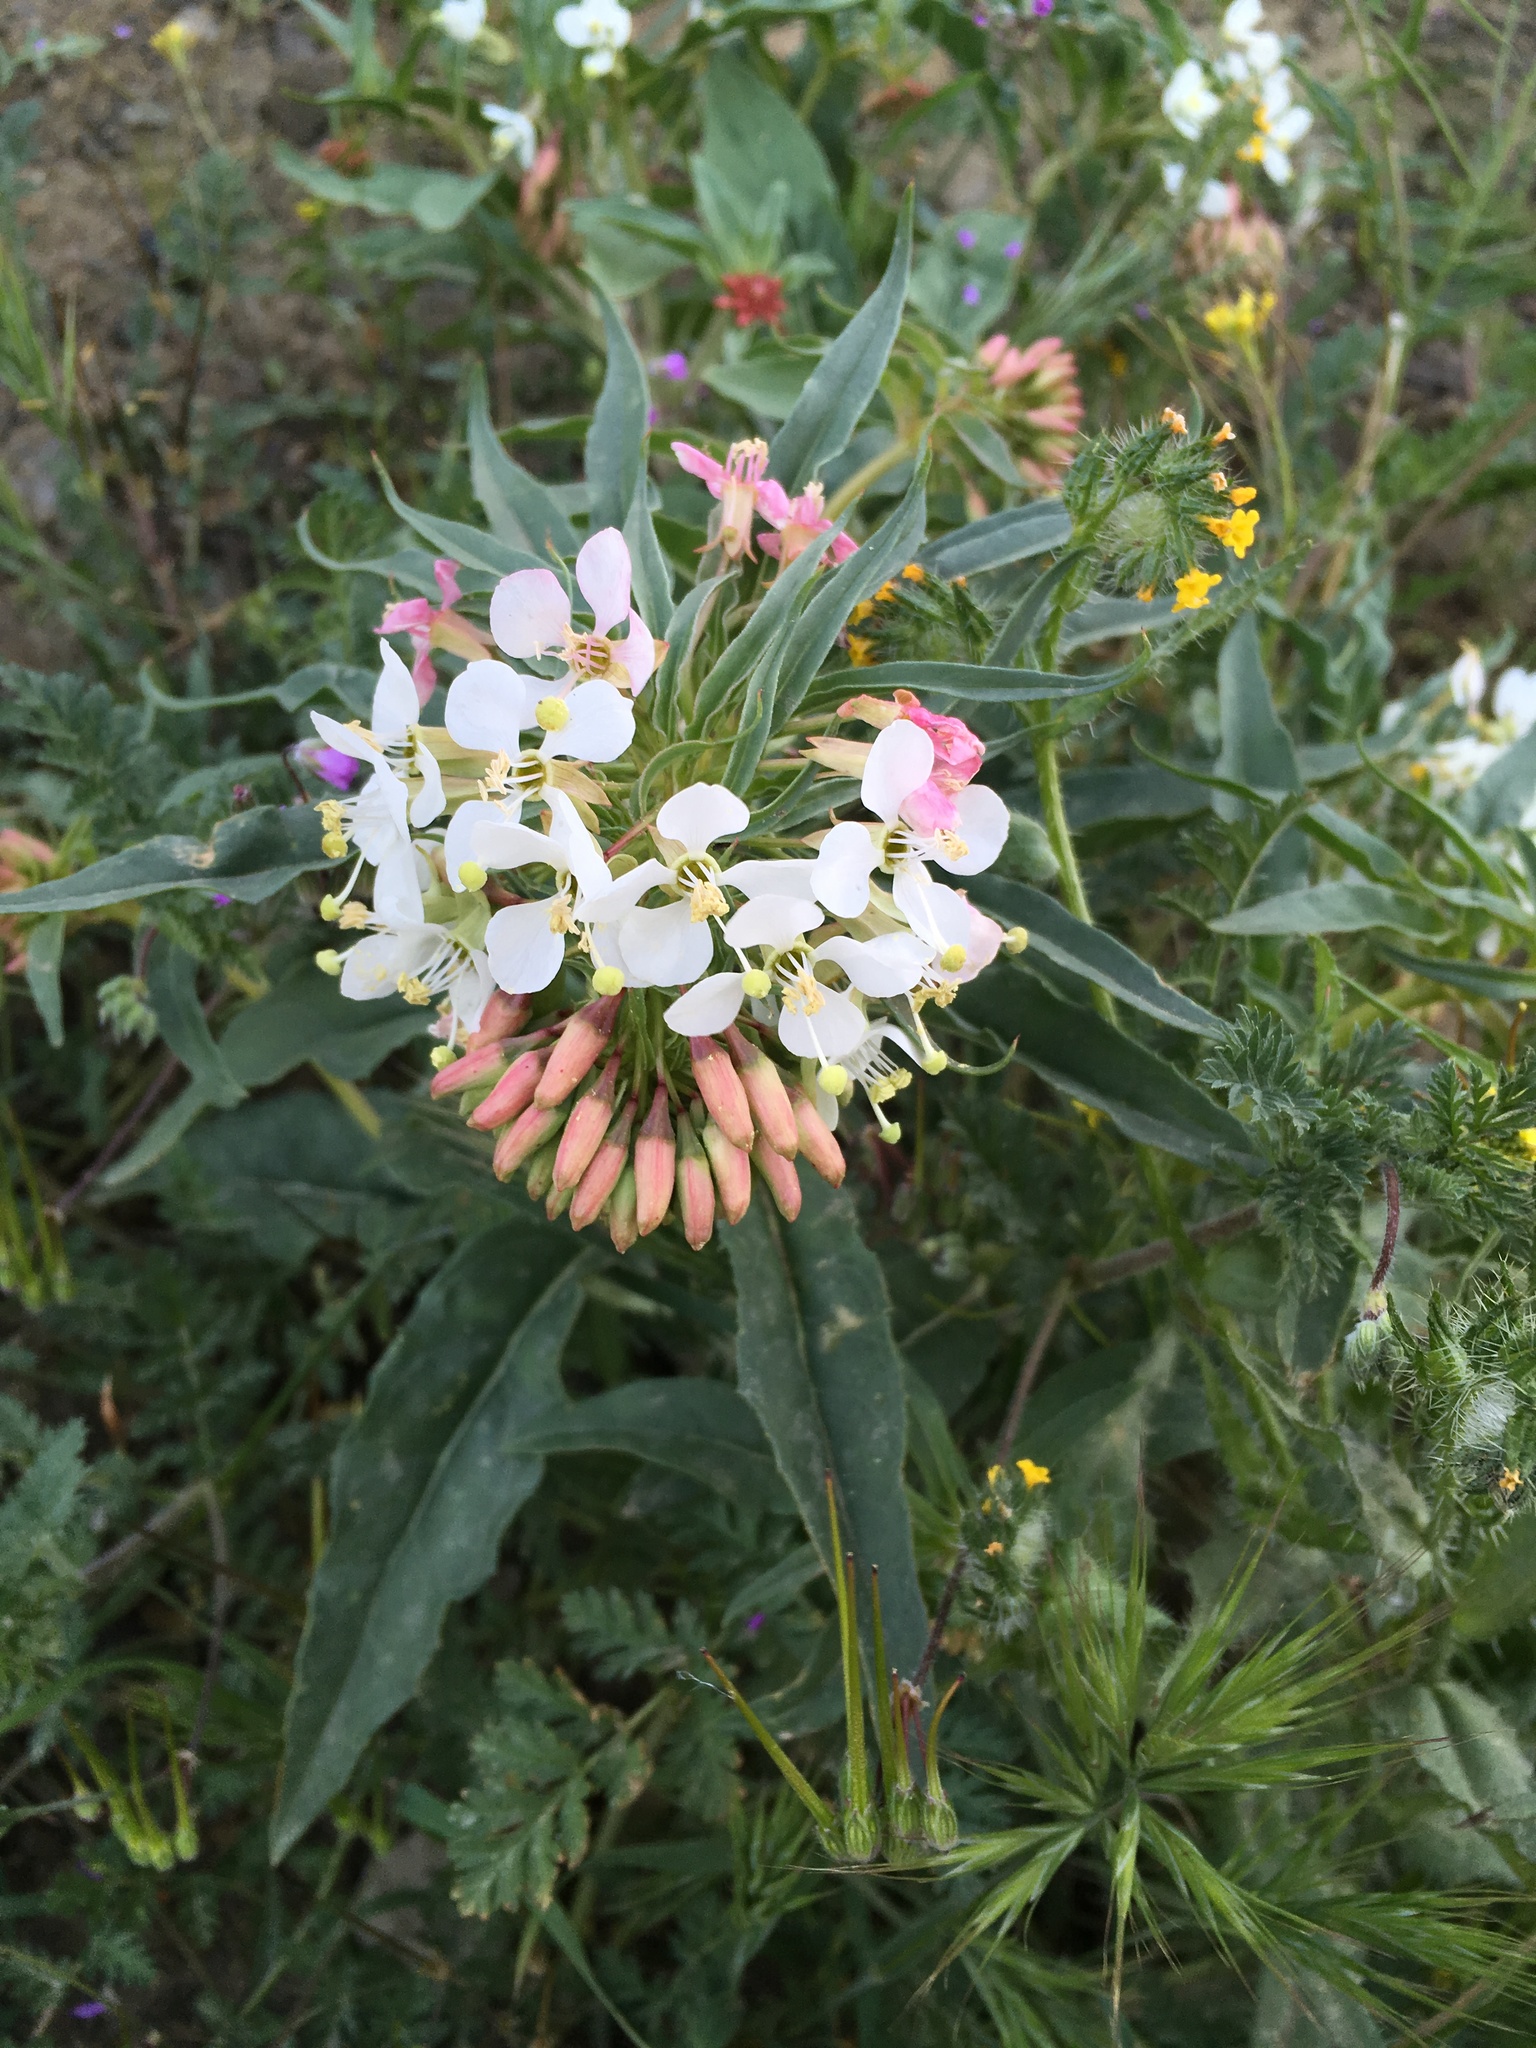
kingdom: Plantae
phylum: Tracheophyta
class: Magnoliopsida
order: Myrtales
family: Onagraceae
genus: Eremothera
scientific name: Eremothera boothii
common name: Booth's evening primrose
